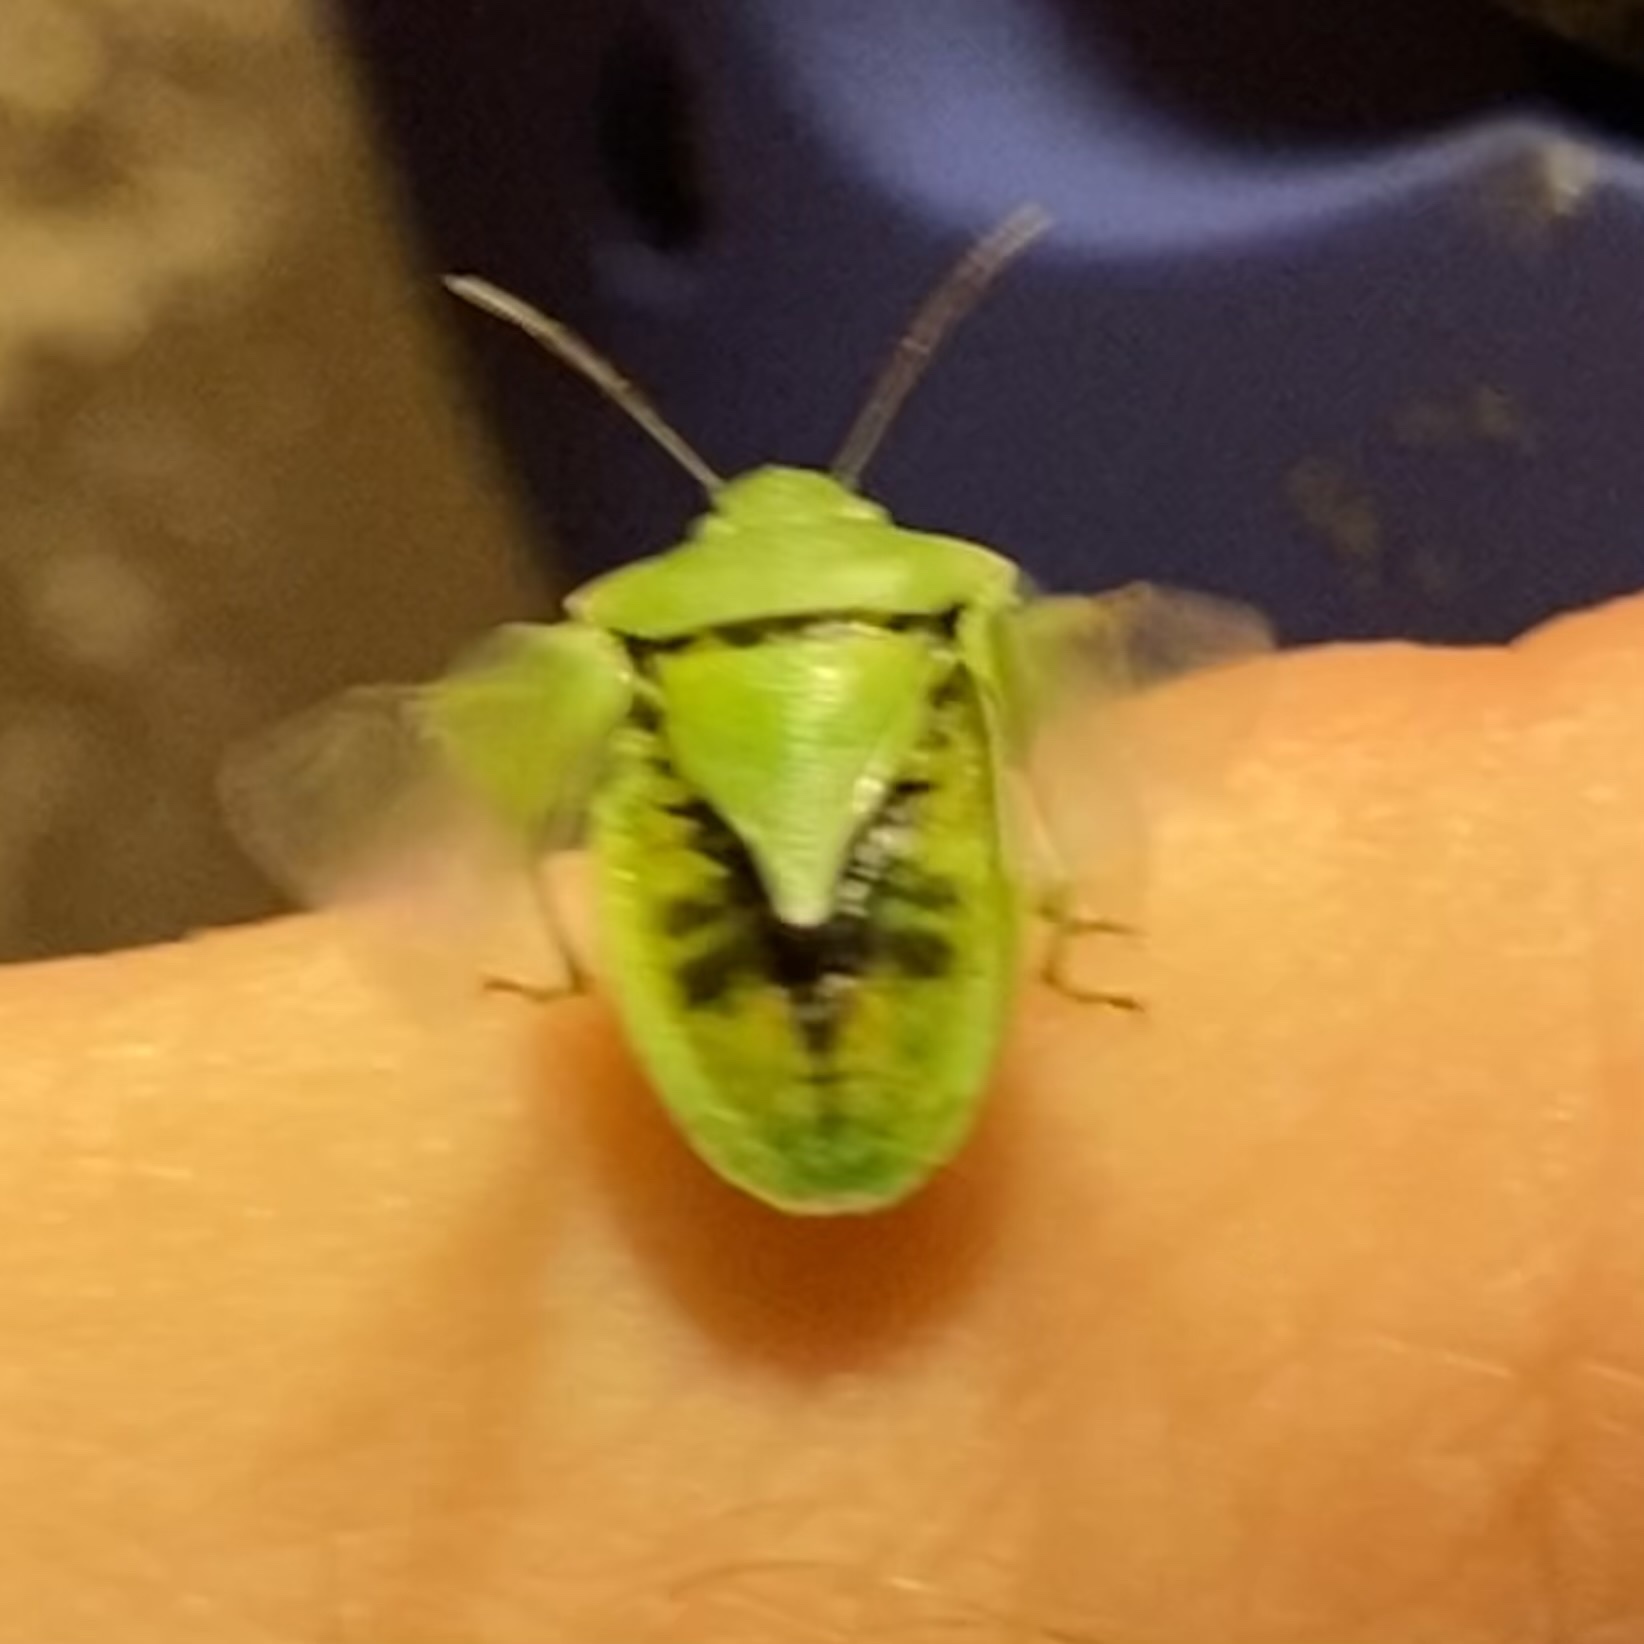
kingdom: Animalia
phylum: Arthropoda
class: Insecta
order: Hemiptera
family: Pentatomidae
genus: Thyanta
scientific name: Thyanta accerra
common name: Stink bug
